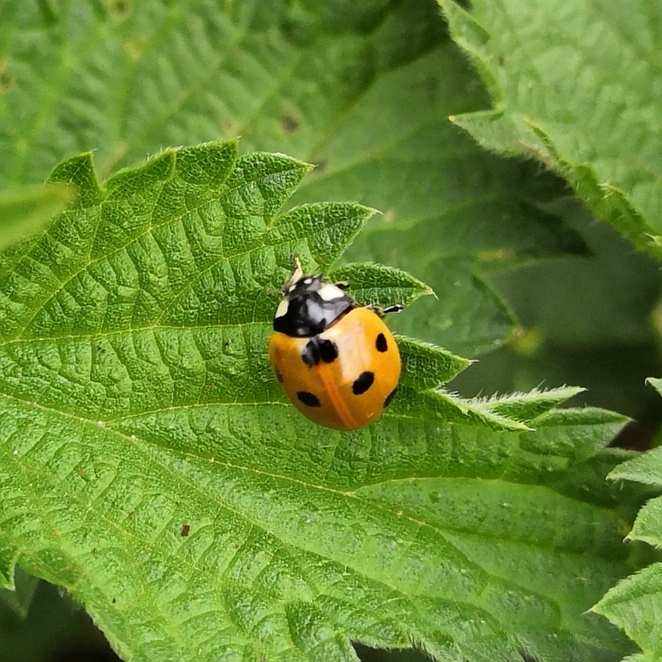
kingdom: Animalia
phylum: Arthropoda
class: Insecta
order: Coleoptera
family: Coccinellidae
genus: Coccinella
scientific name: Coccinella septempunctata
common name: Sevenspotted lady beetle
